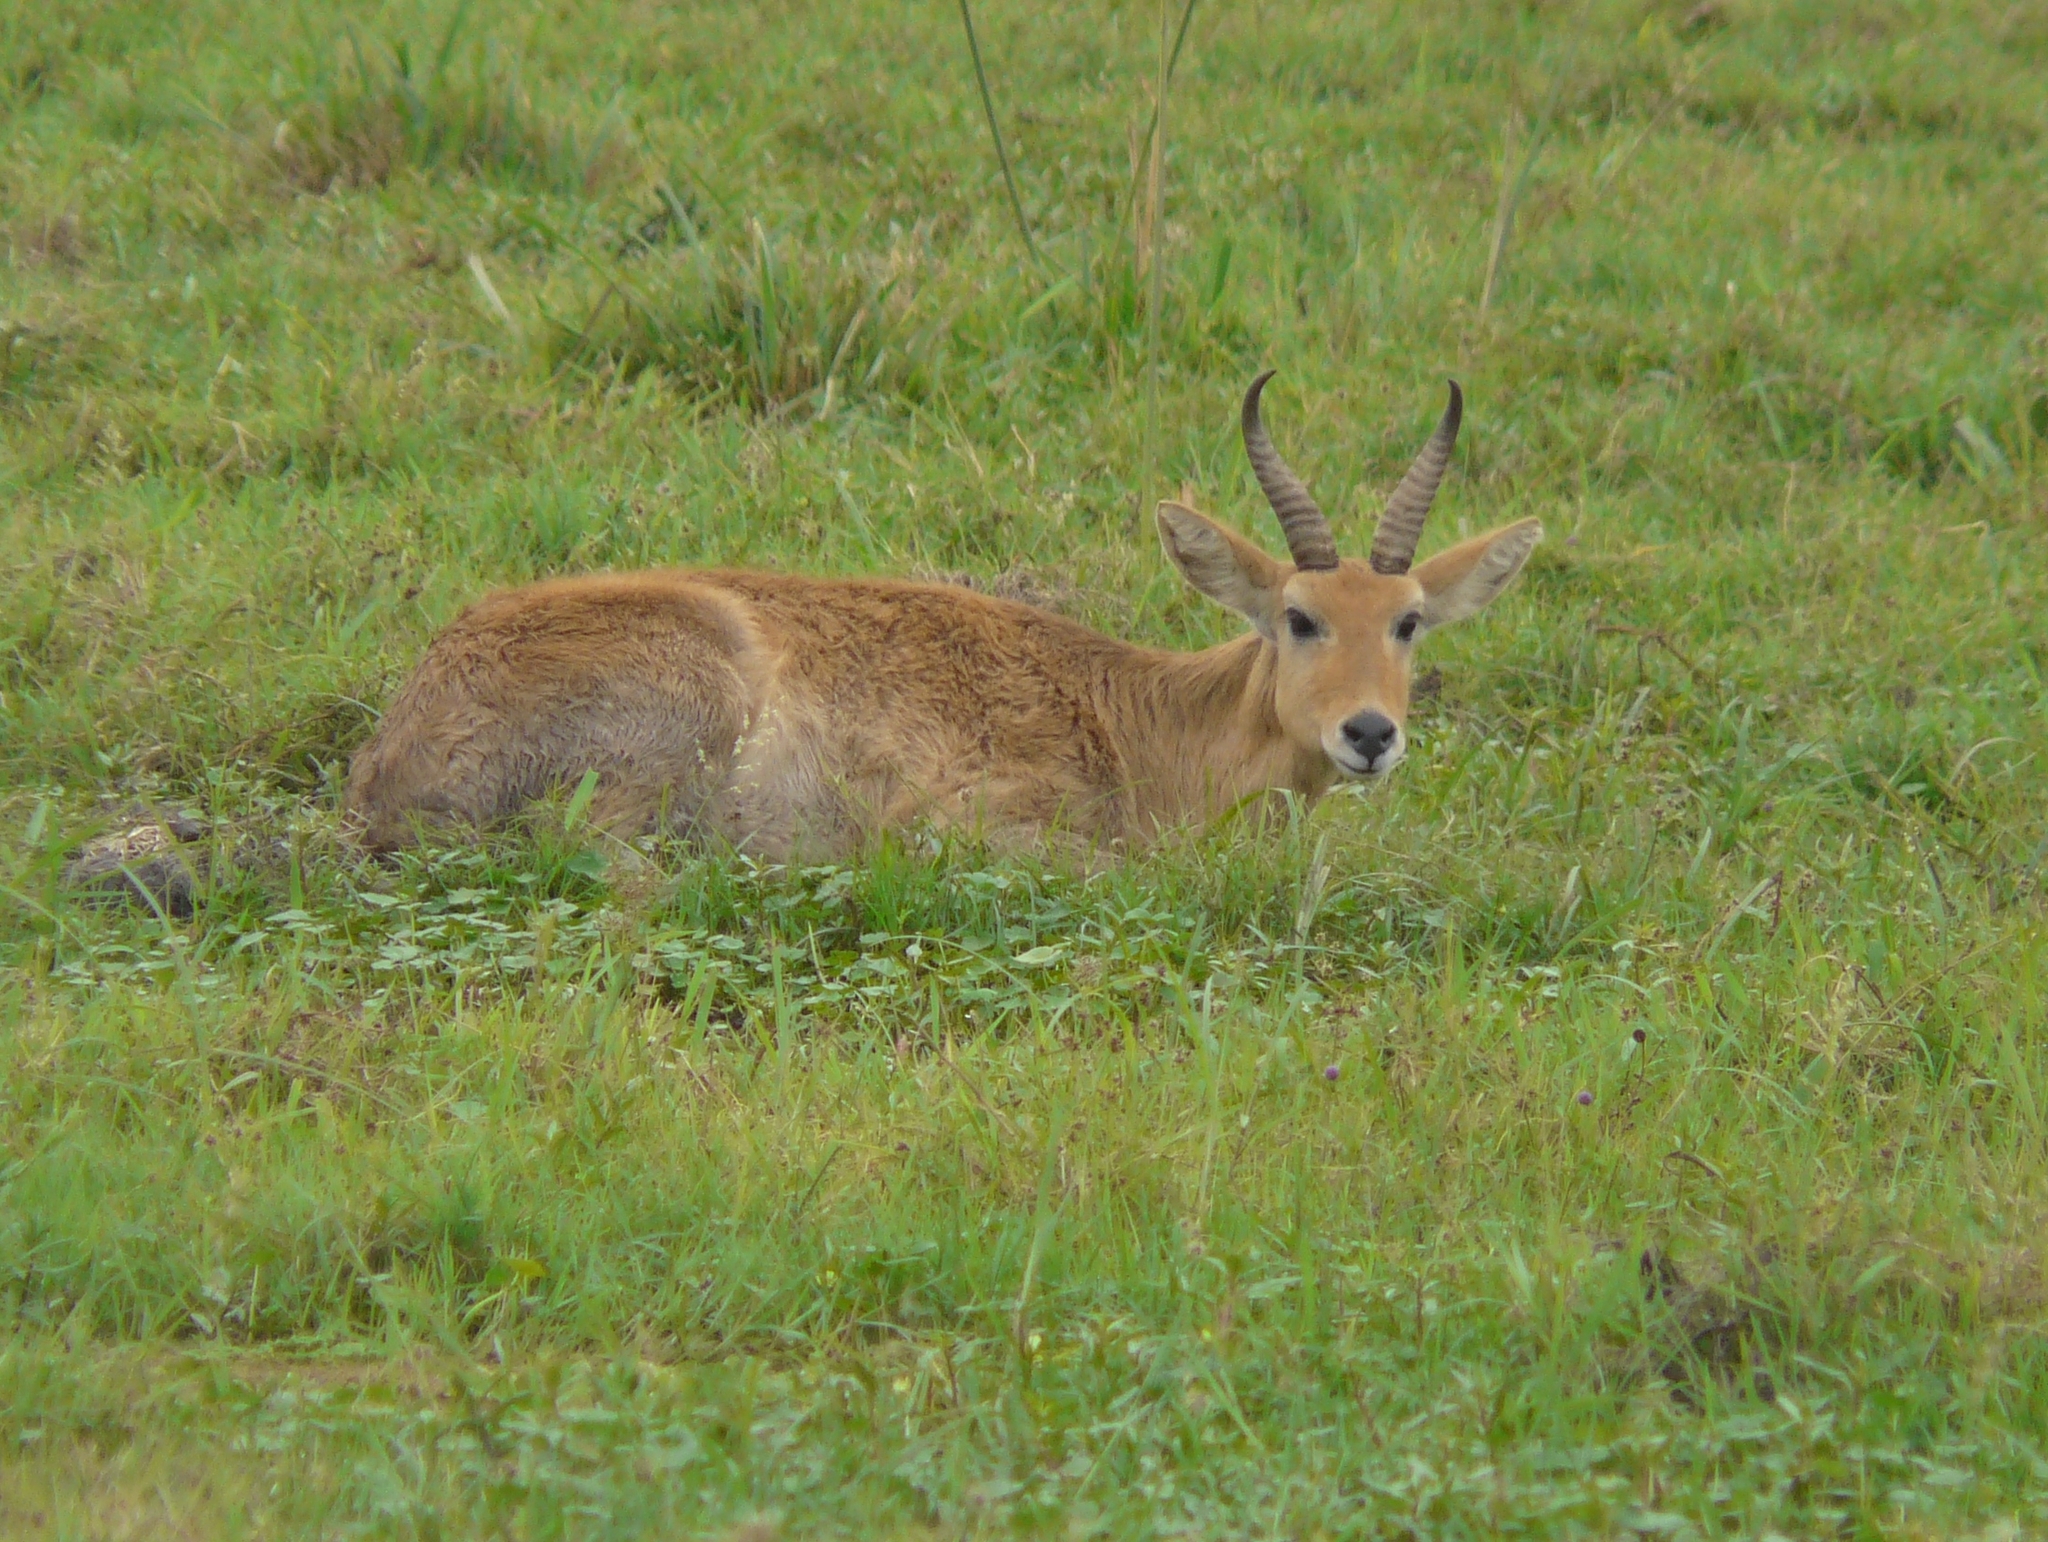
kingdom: Animalia
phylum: Chordata
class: Mammalia
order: Artiodactyla
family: Bovidae
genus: Redunca
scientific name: Redunca redunca
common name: Common reedbuck
